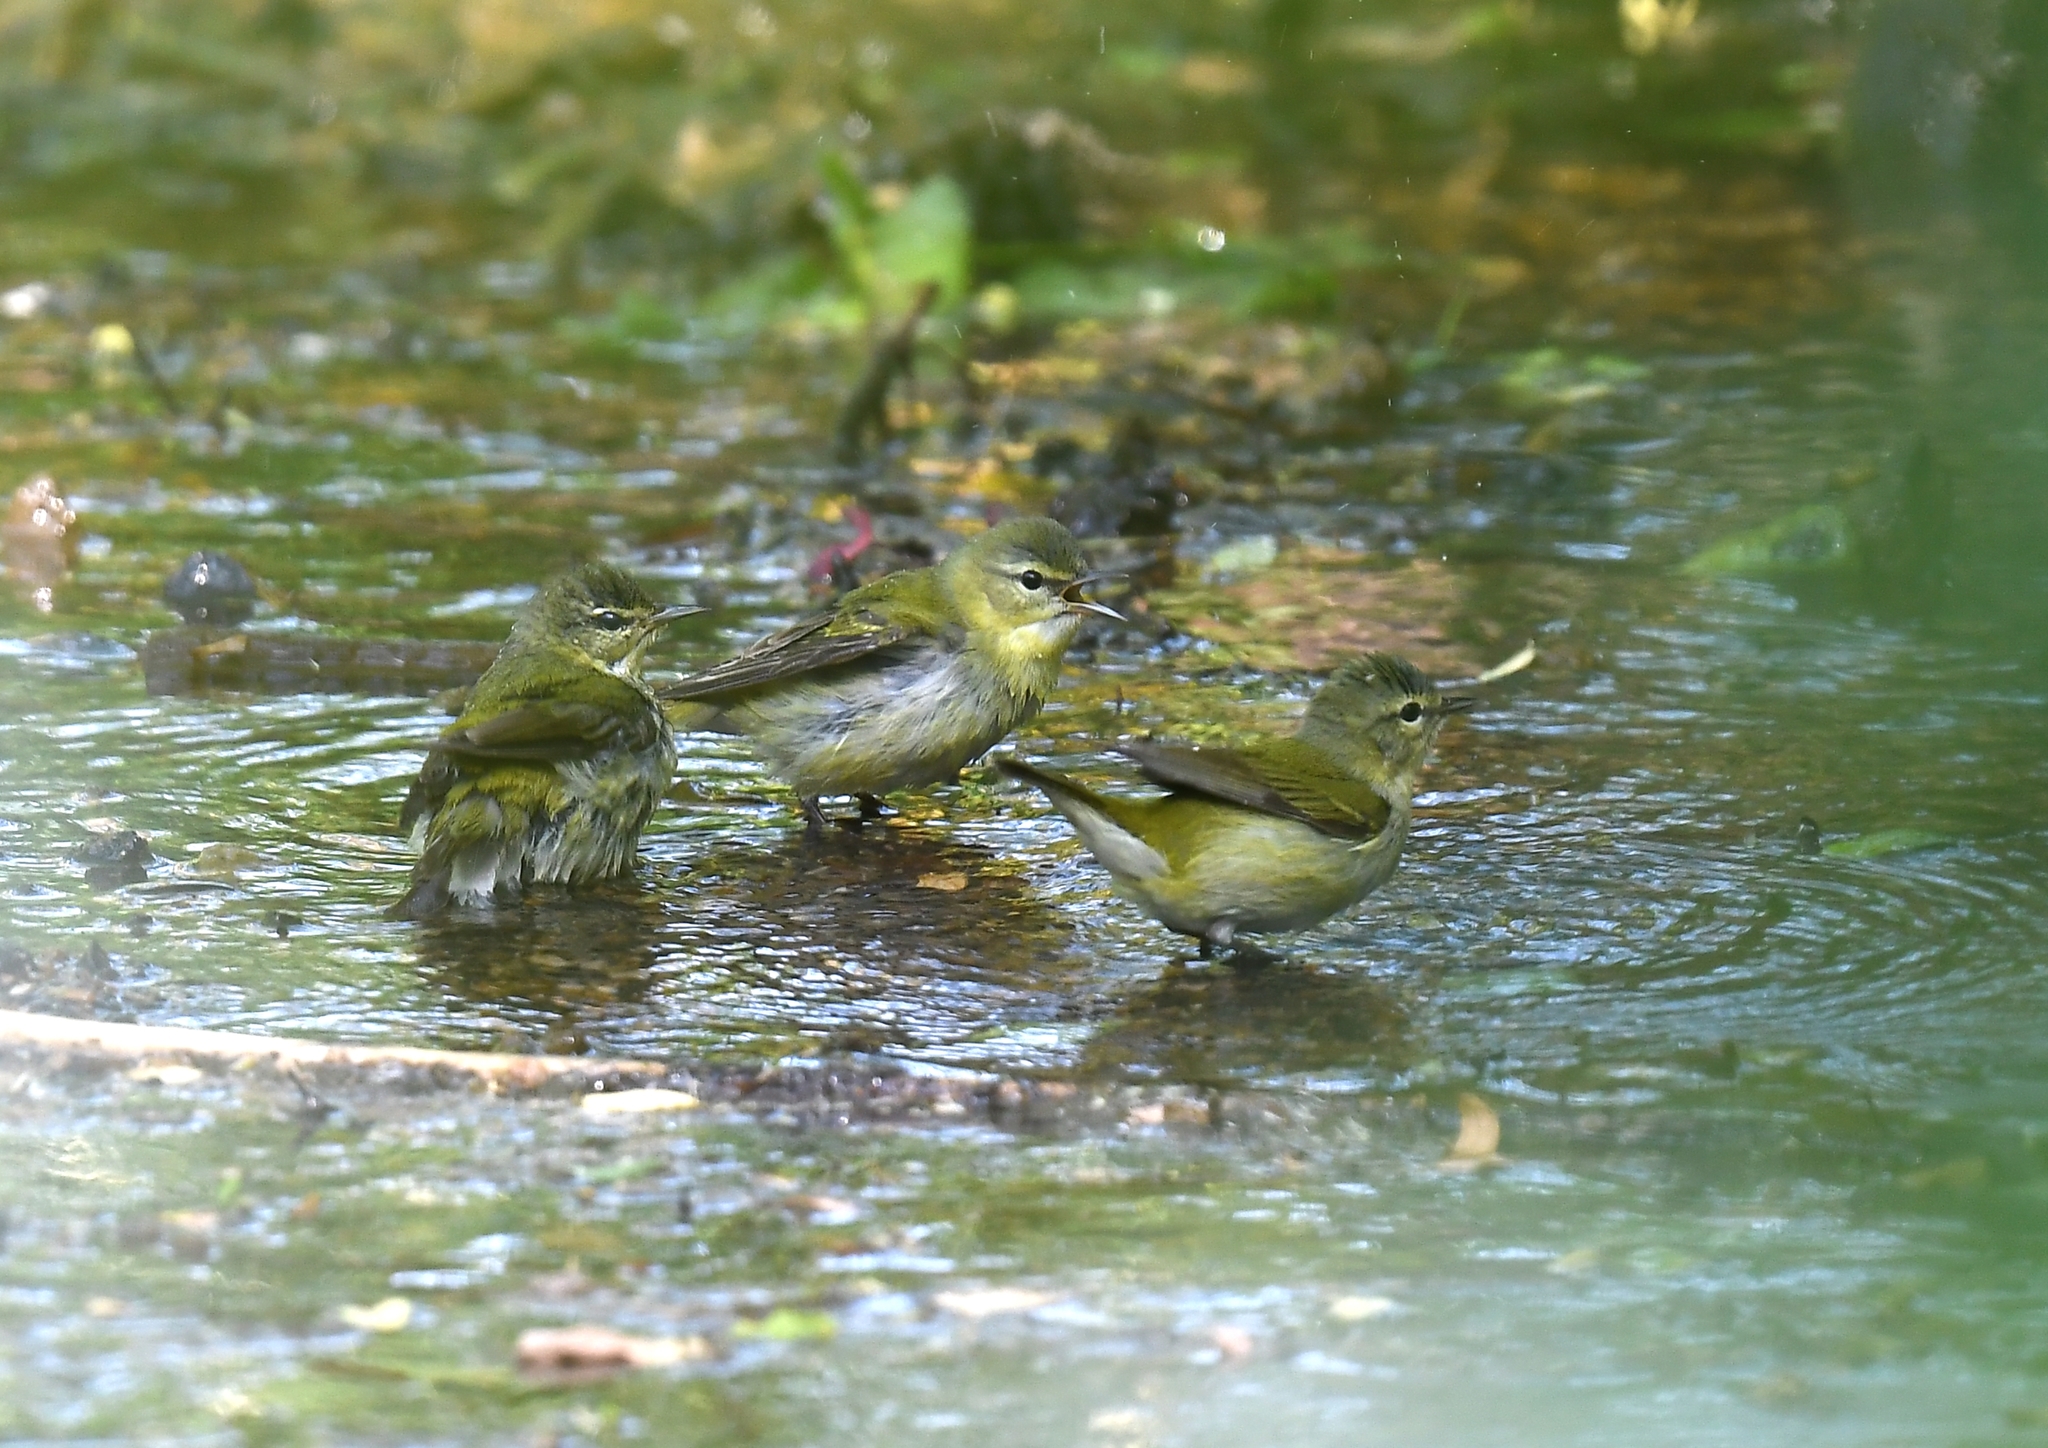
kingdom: Animalia
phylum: Chordata
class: Aves
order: Passeriformes
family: Parulidae
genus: Leiothlypis
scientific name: Leiothlypis peregrina
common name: Tennessee warbler
